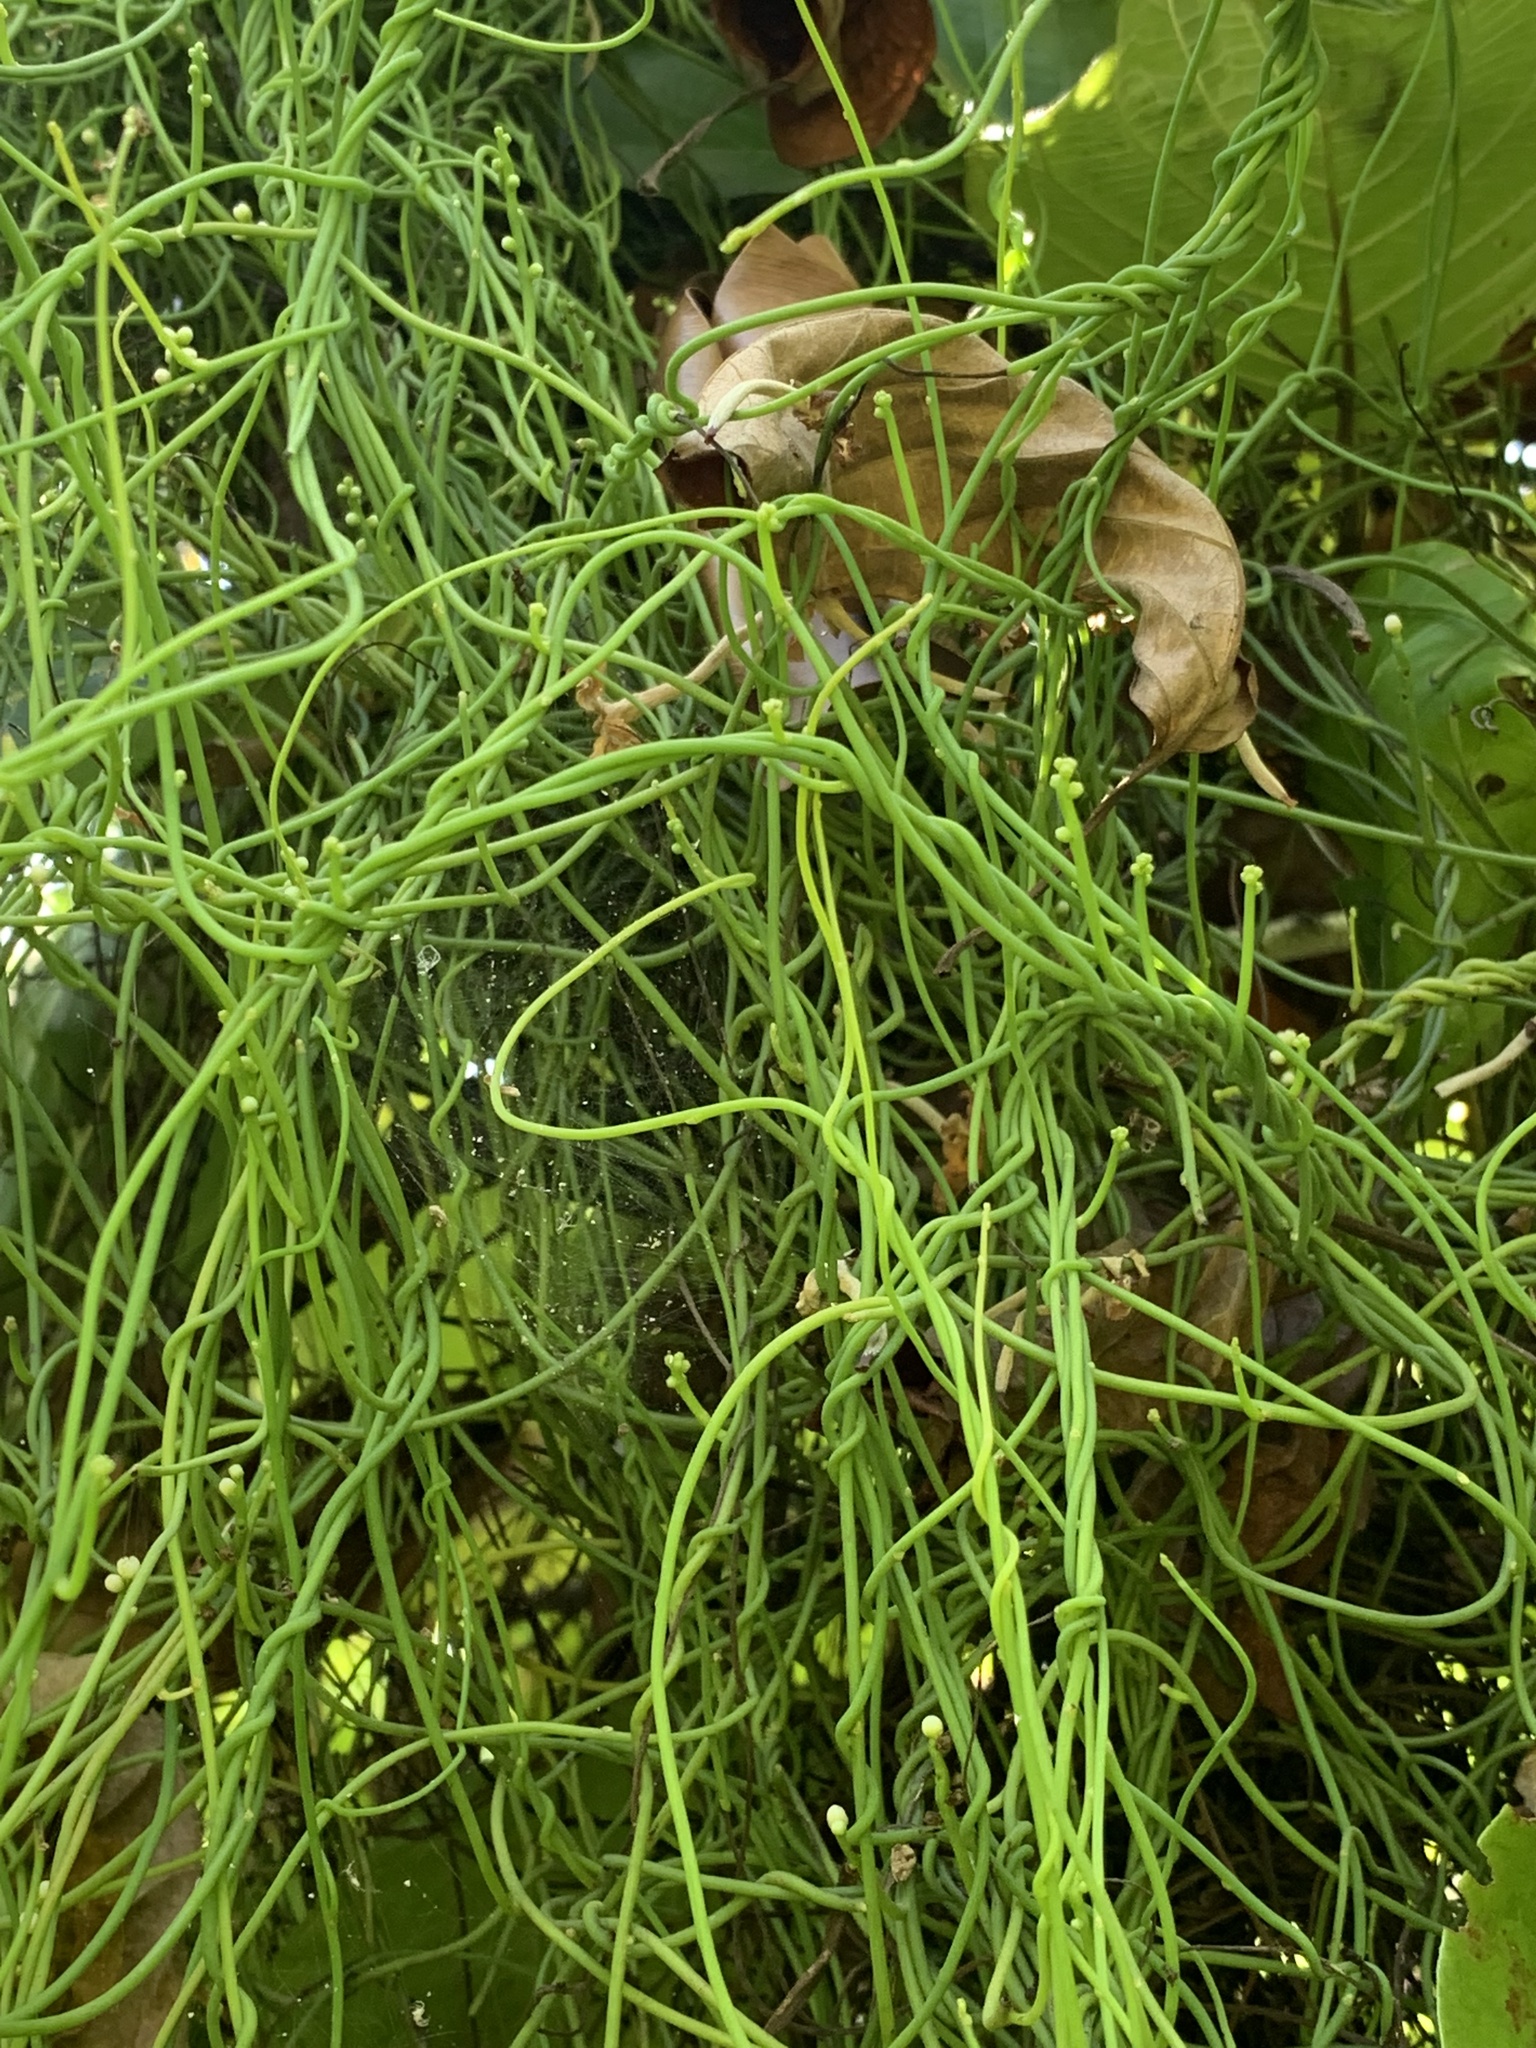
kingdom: Plantae
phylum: Tracheophyta
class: Magnoliopsida
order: Laurales
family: Lauraceae
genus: Cassytha
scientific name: Cassytha filiformis
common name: Dodder-laurel
